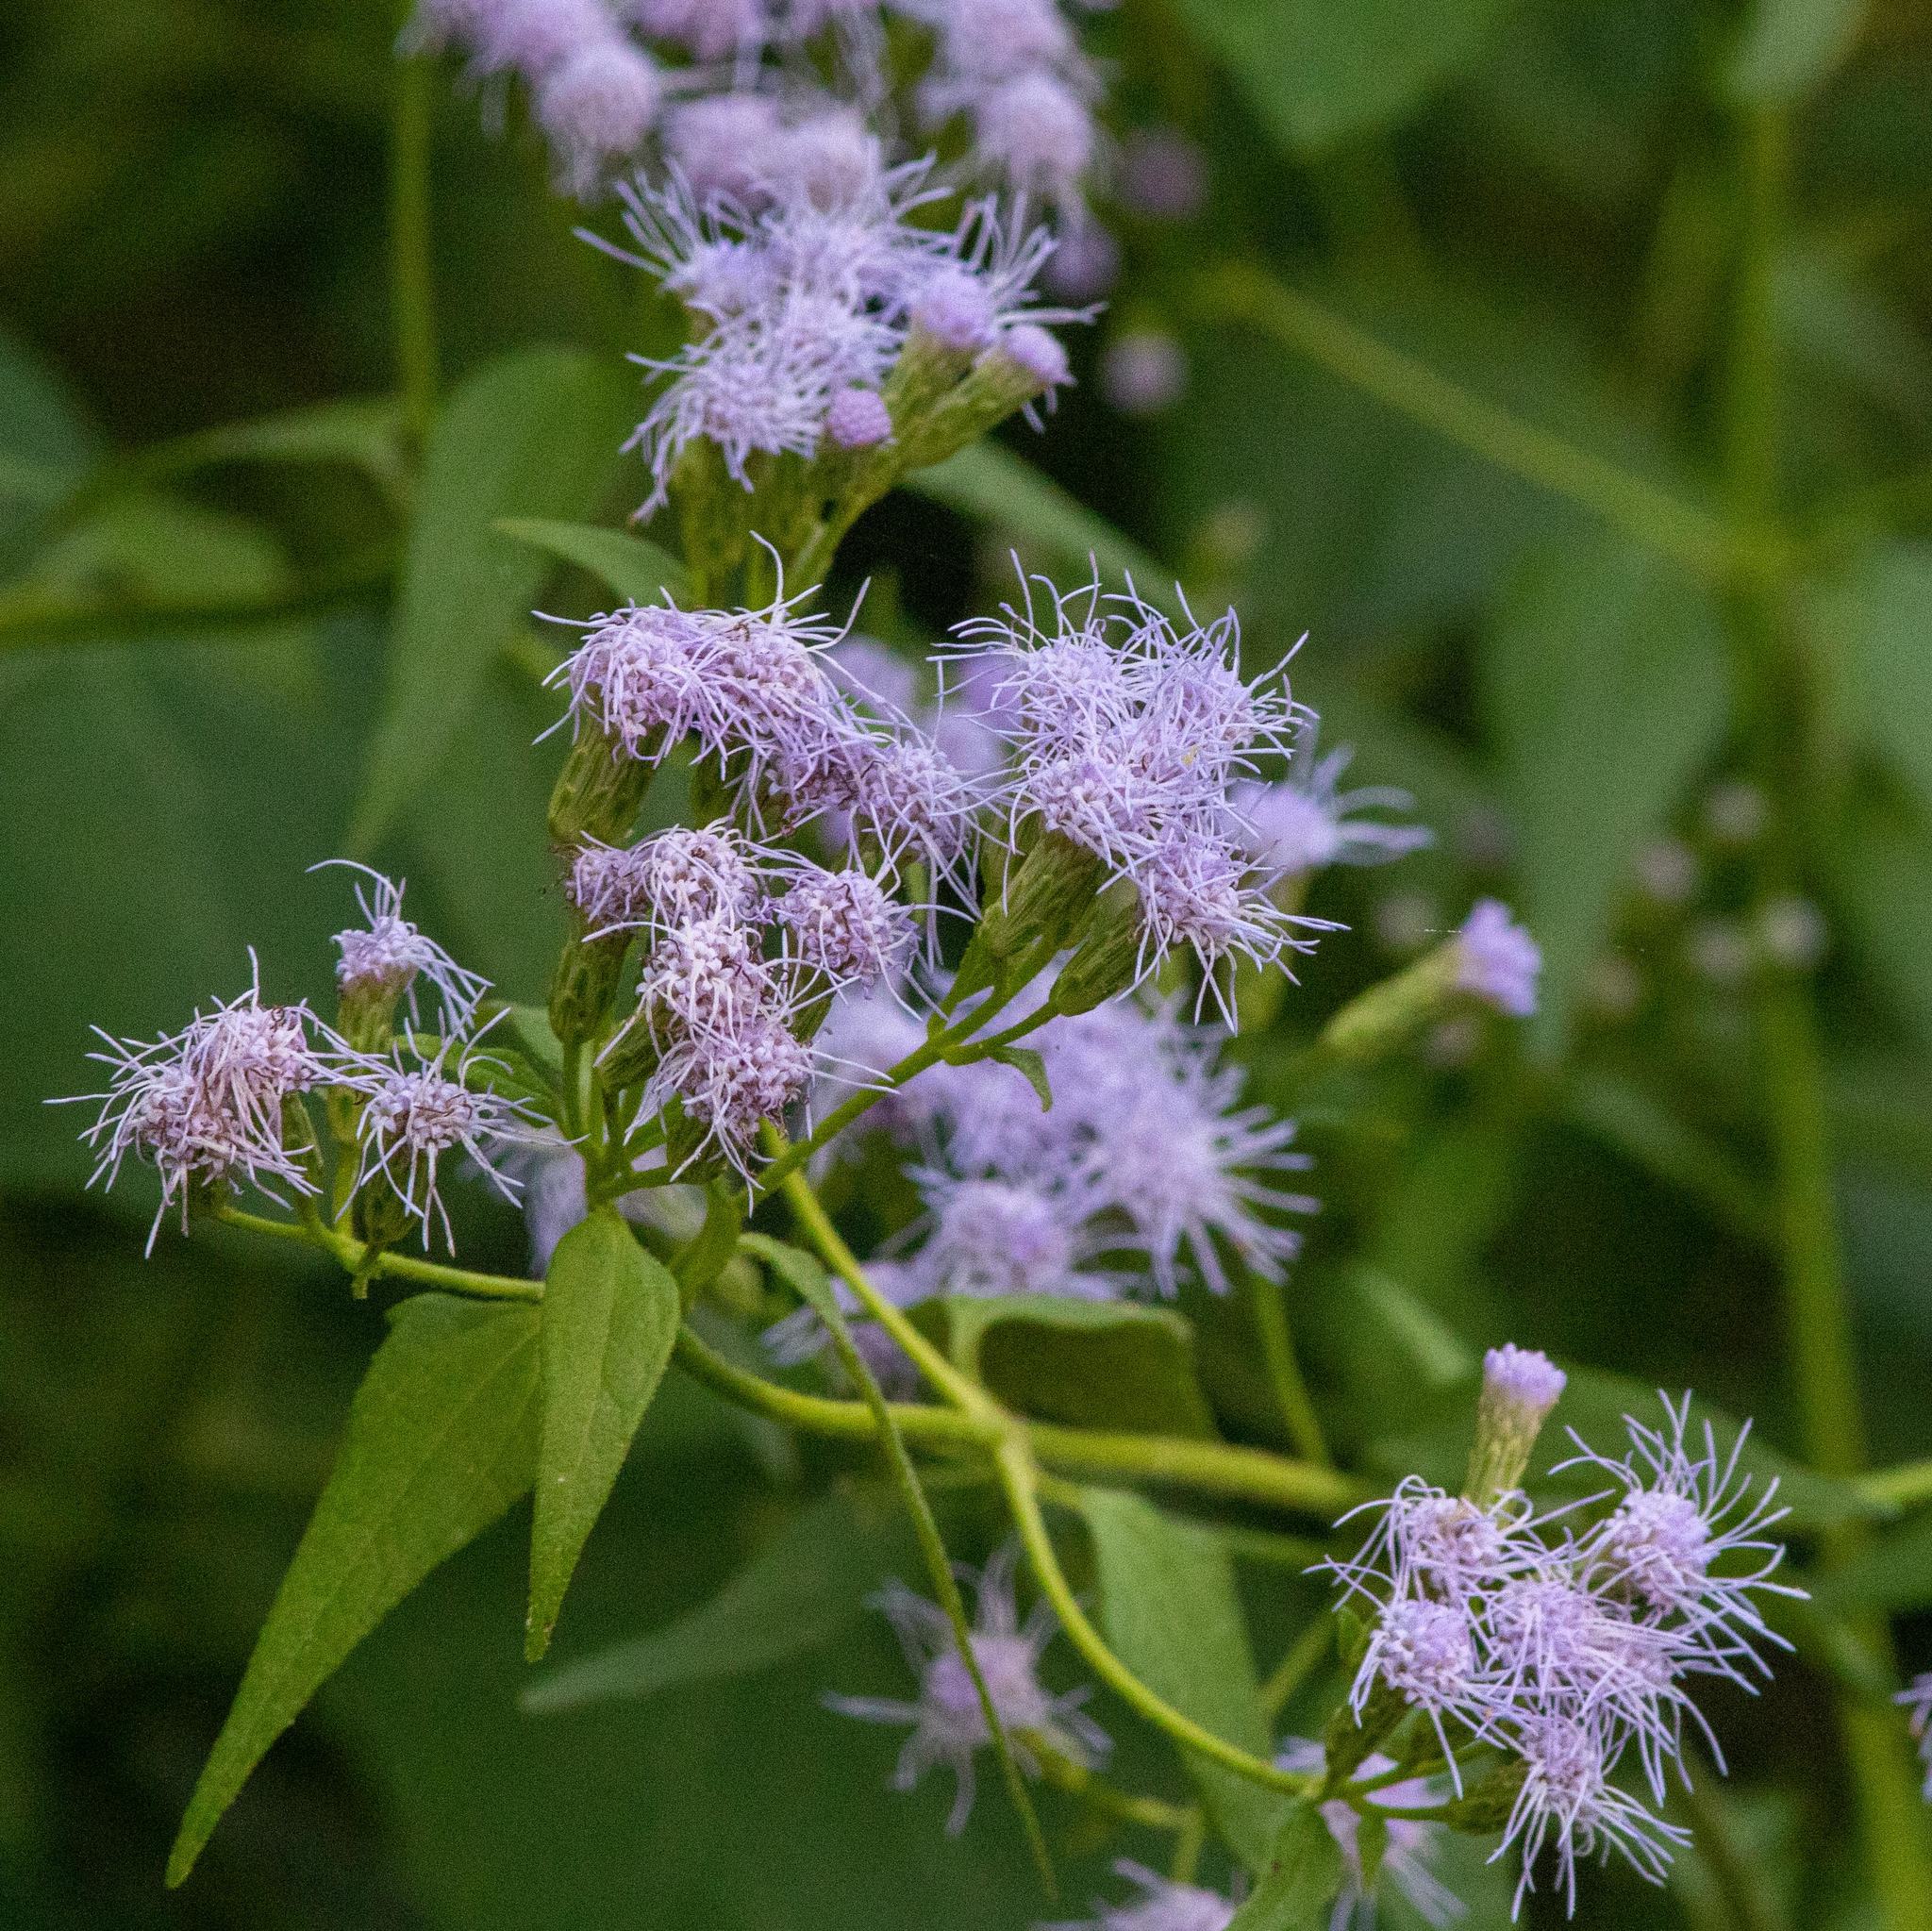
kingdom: Plantae
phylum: Tracheophyta
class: Magnoliopsida
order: Asterales
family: Asteraceae
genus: Chromolaena
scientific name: Chromolaena odorata
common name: Siamweed
